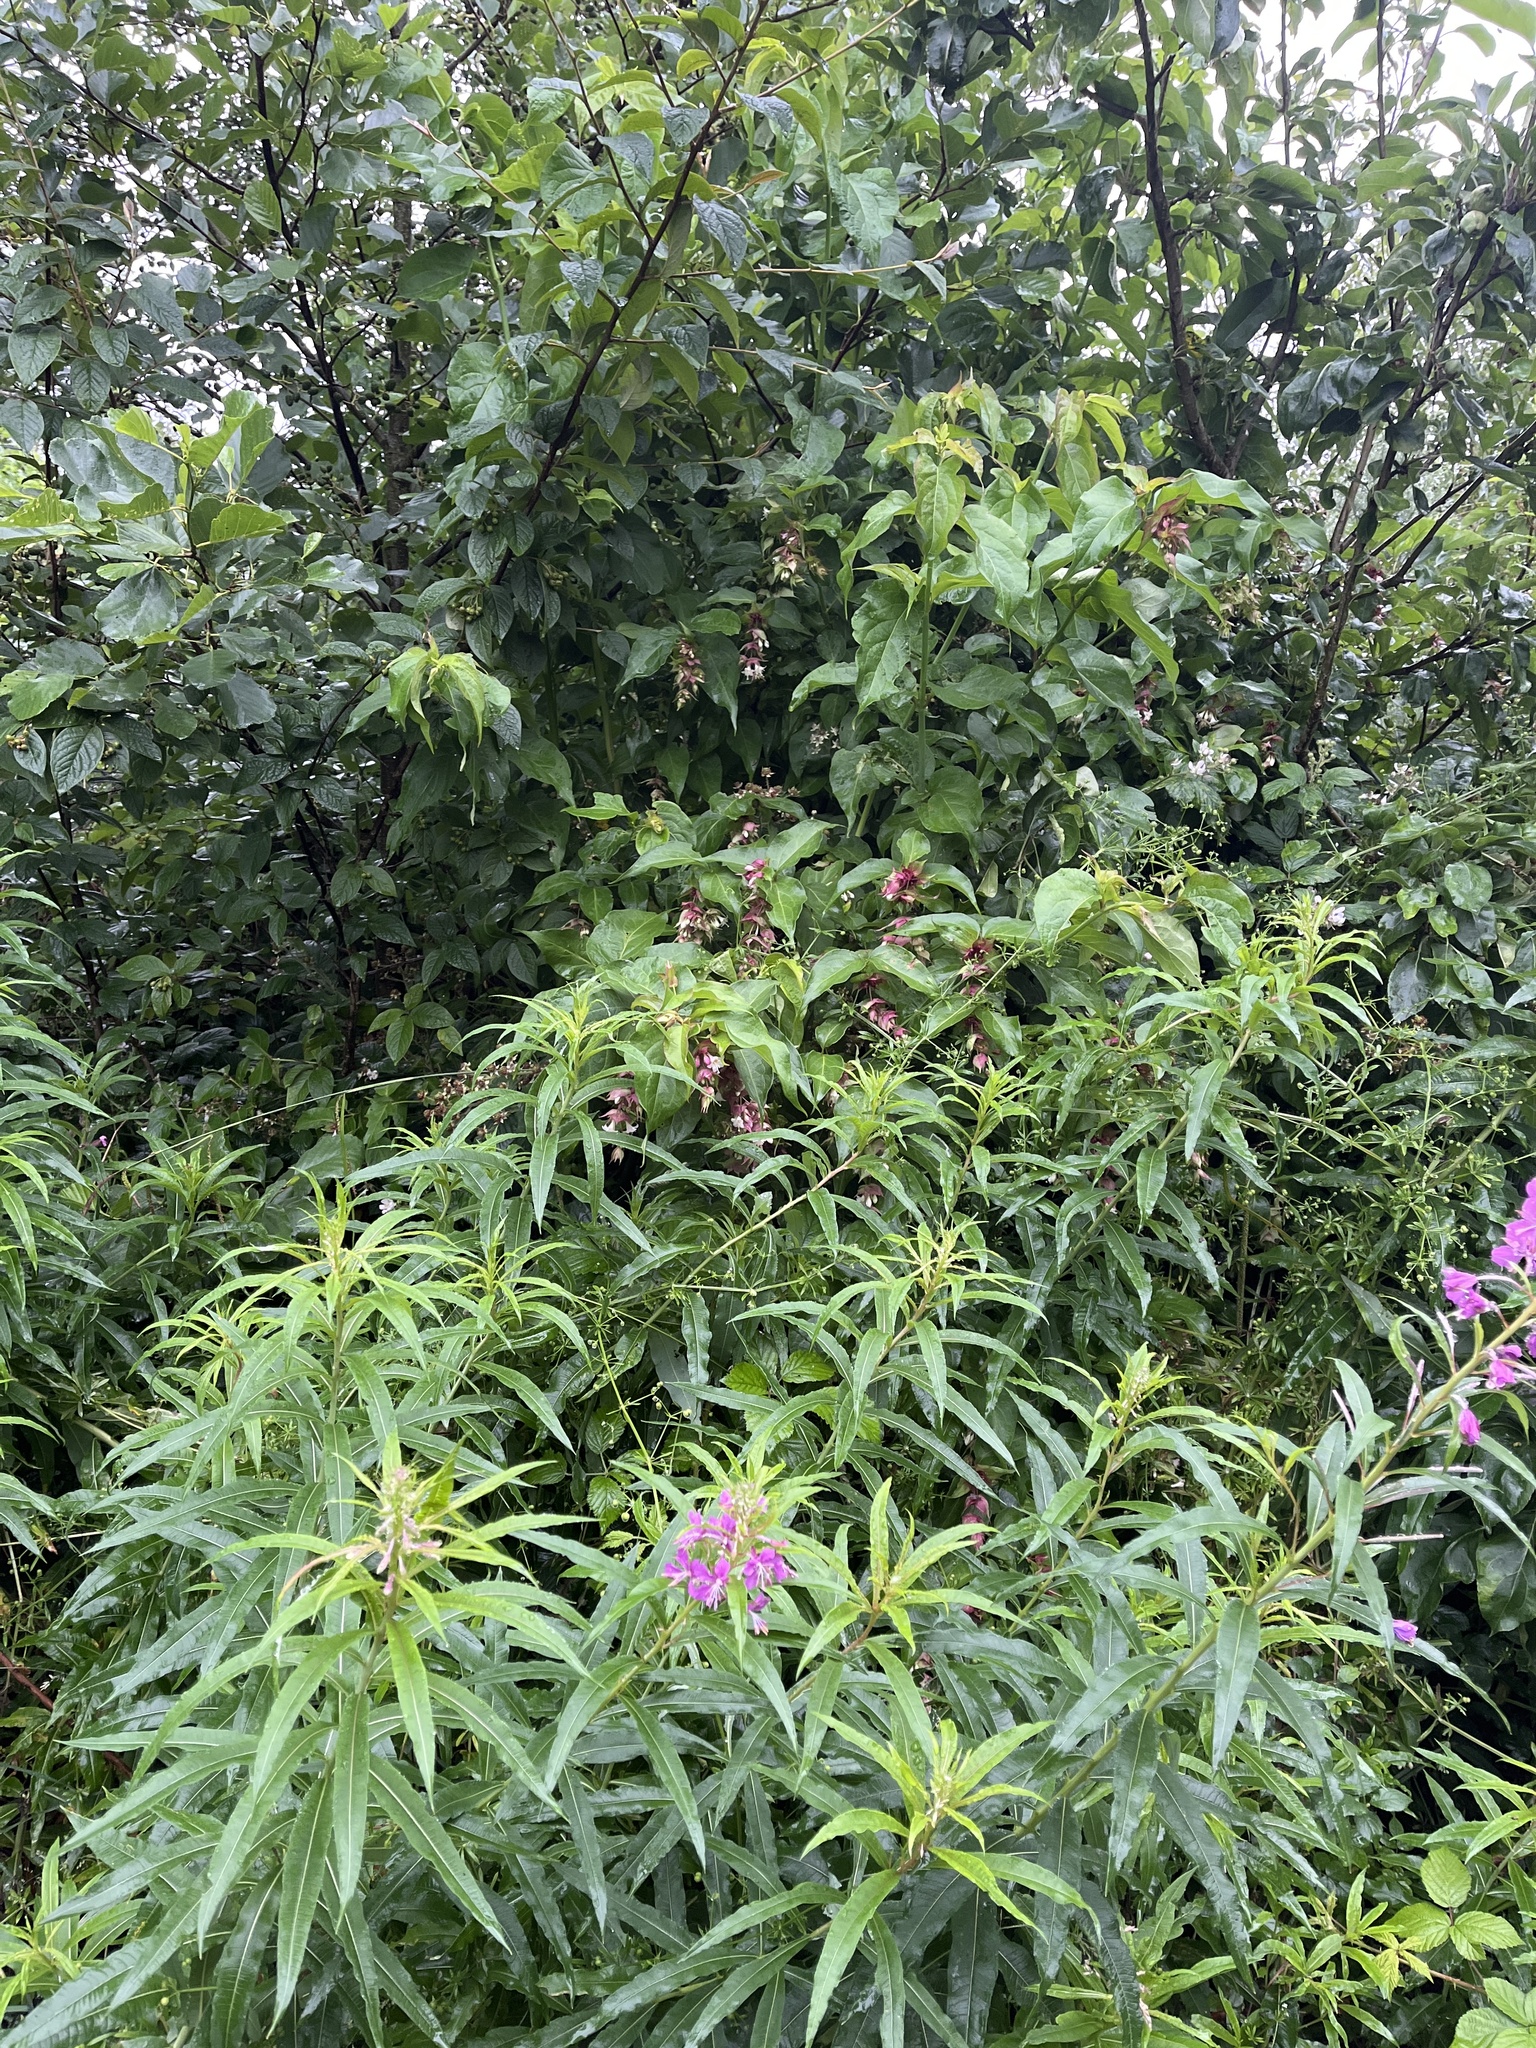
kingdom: Plantae
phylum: Tracheophyta
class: Magnoliopsida
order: Dipsacales
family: Caprifoliaceae
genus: Leycesteria
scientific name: Leycesteria formosa
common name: Himalayan honeysuckle
